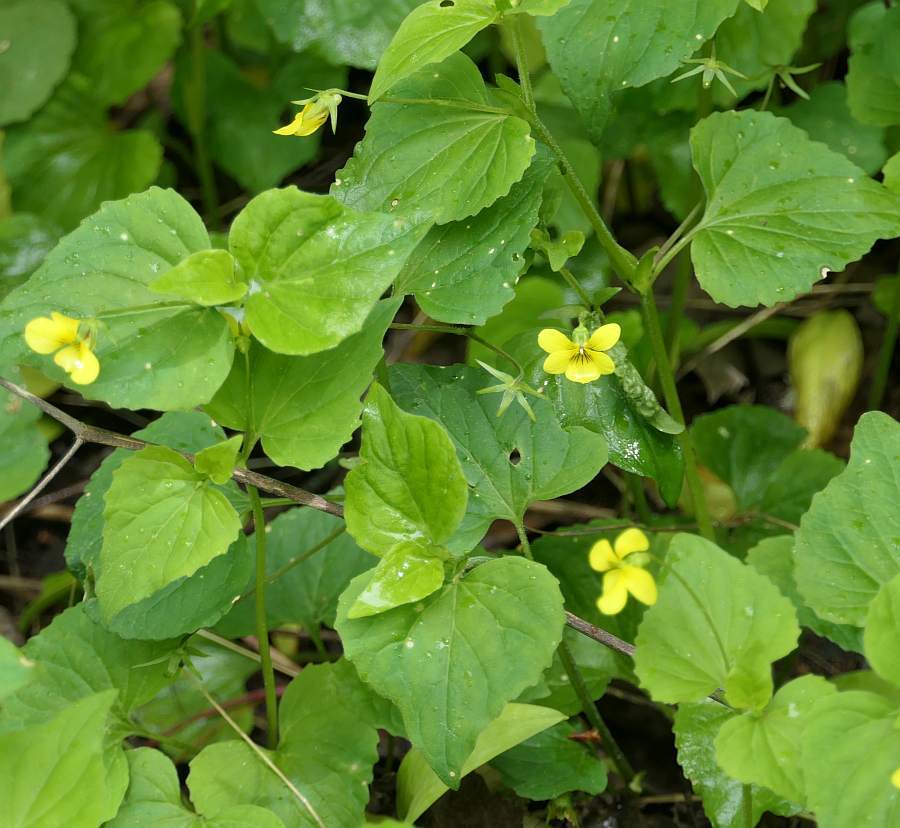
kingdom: Plantae
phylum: Tracheophyta
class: Magnoliopsida
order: Malpighiales
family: Violaceae
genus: Viola
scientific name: Viola eriocarpa
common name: Smooth yellow violet
